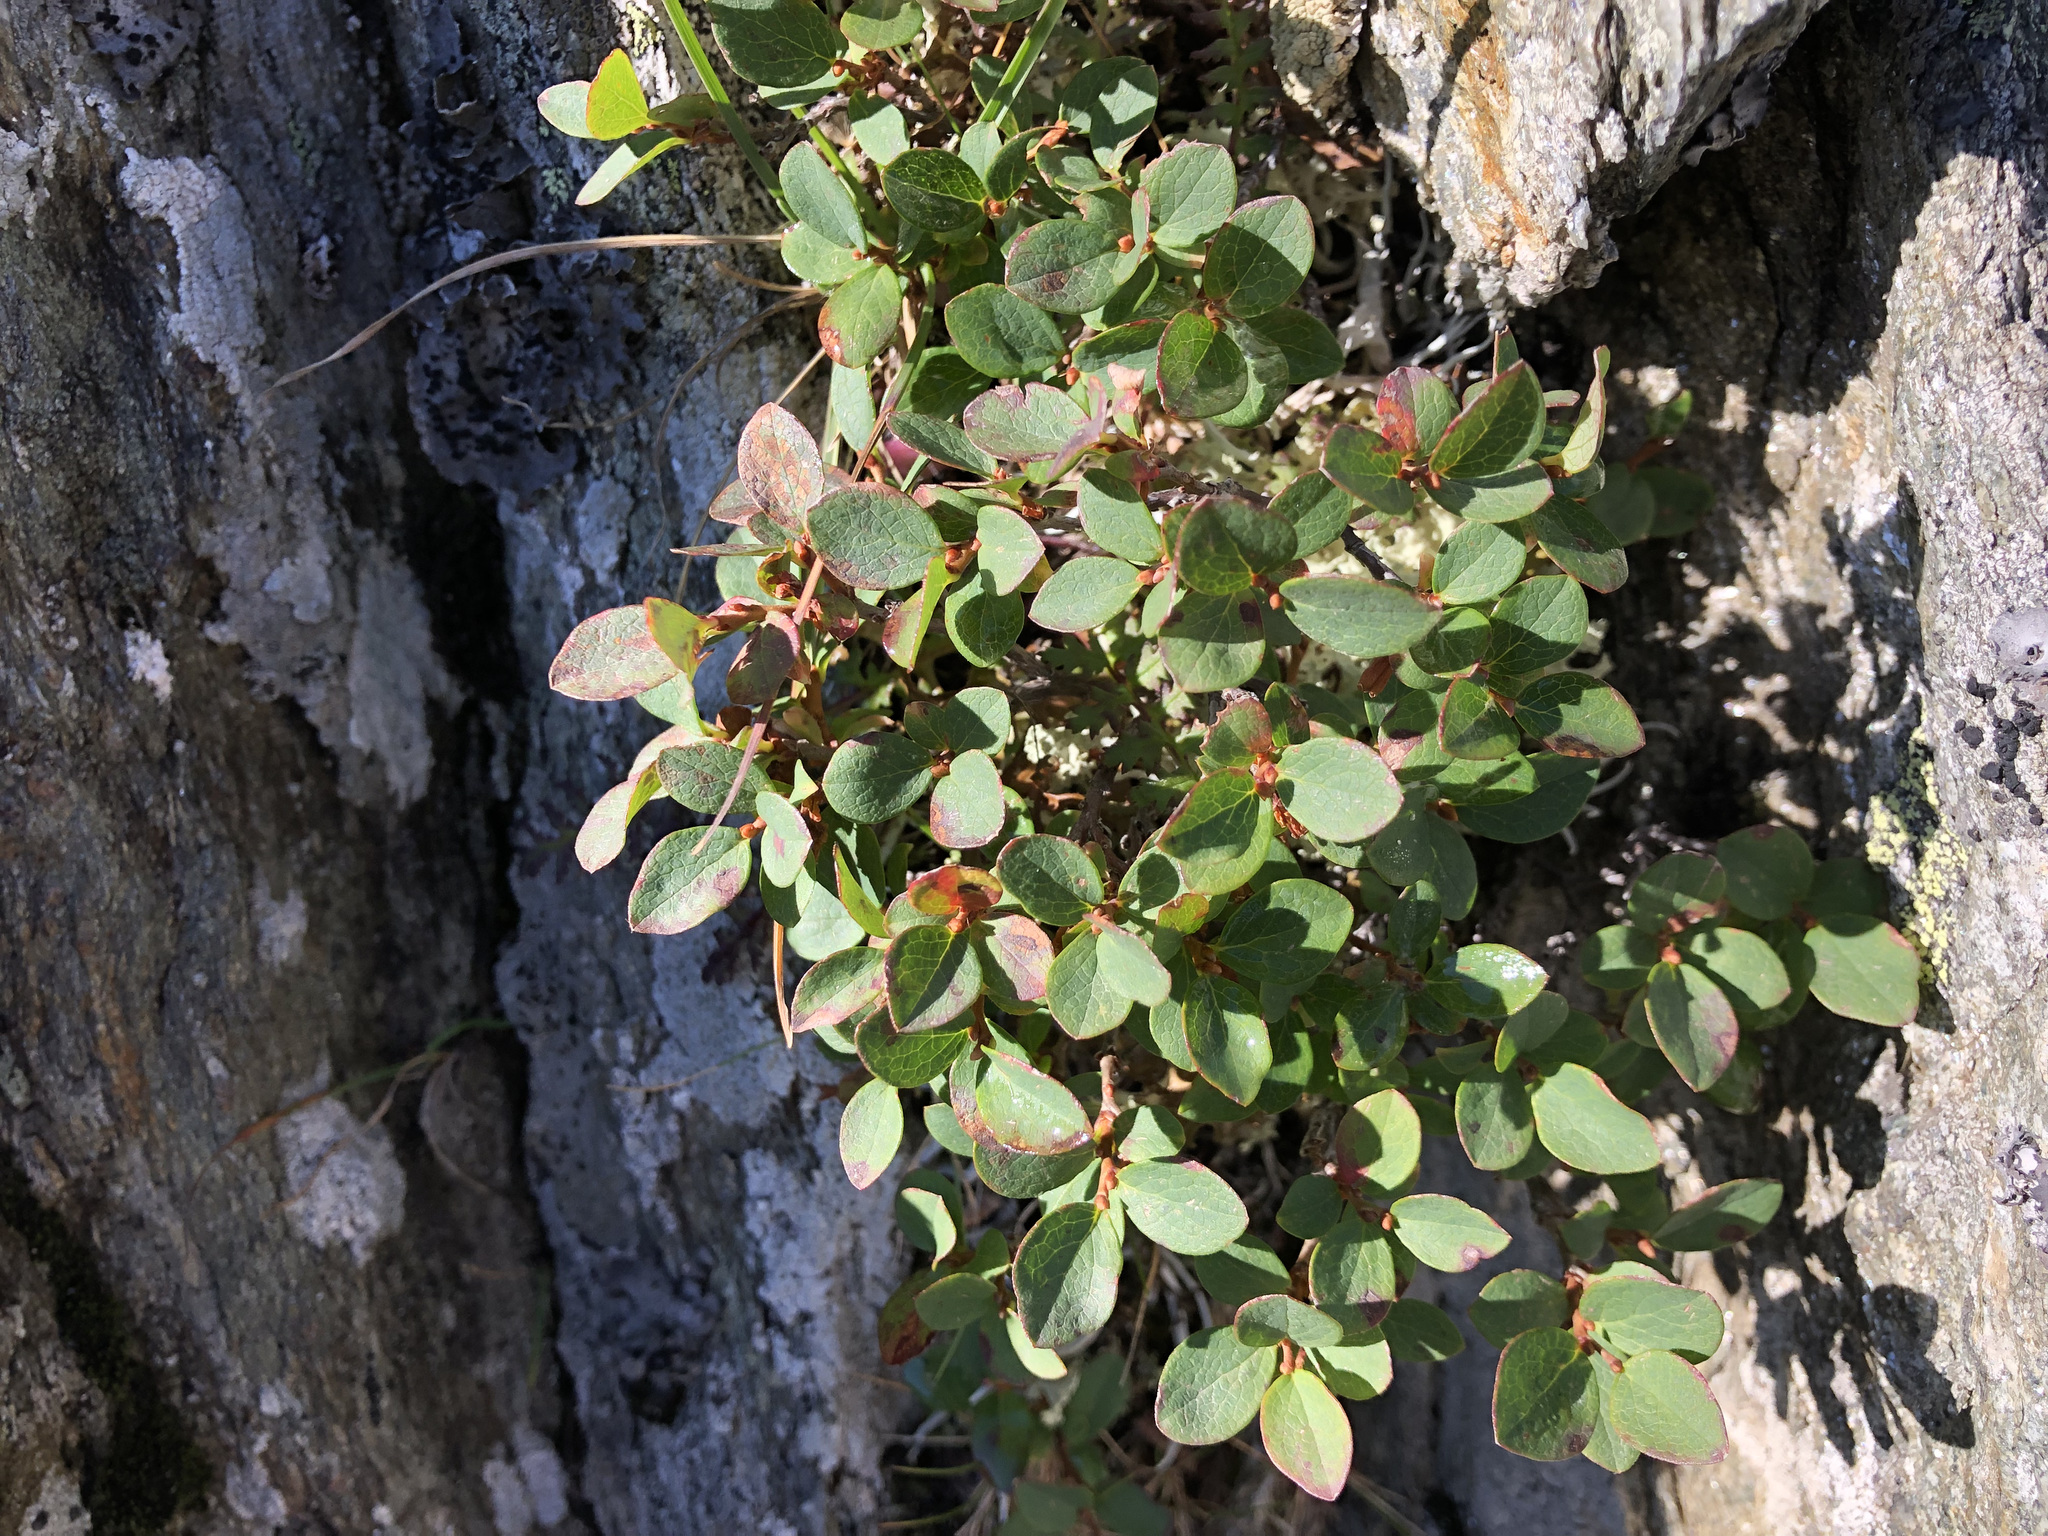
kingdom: Plantae
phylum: Tracheophyta
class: Magnoliopsida
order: Ericales
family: Ericaceae
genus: Vaccinium
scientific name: Vaccinium uliginosum
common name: Bog bilberry
